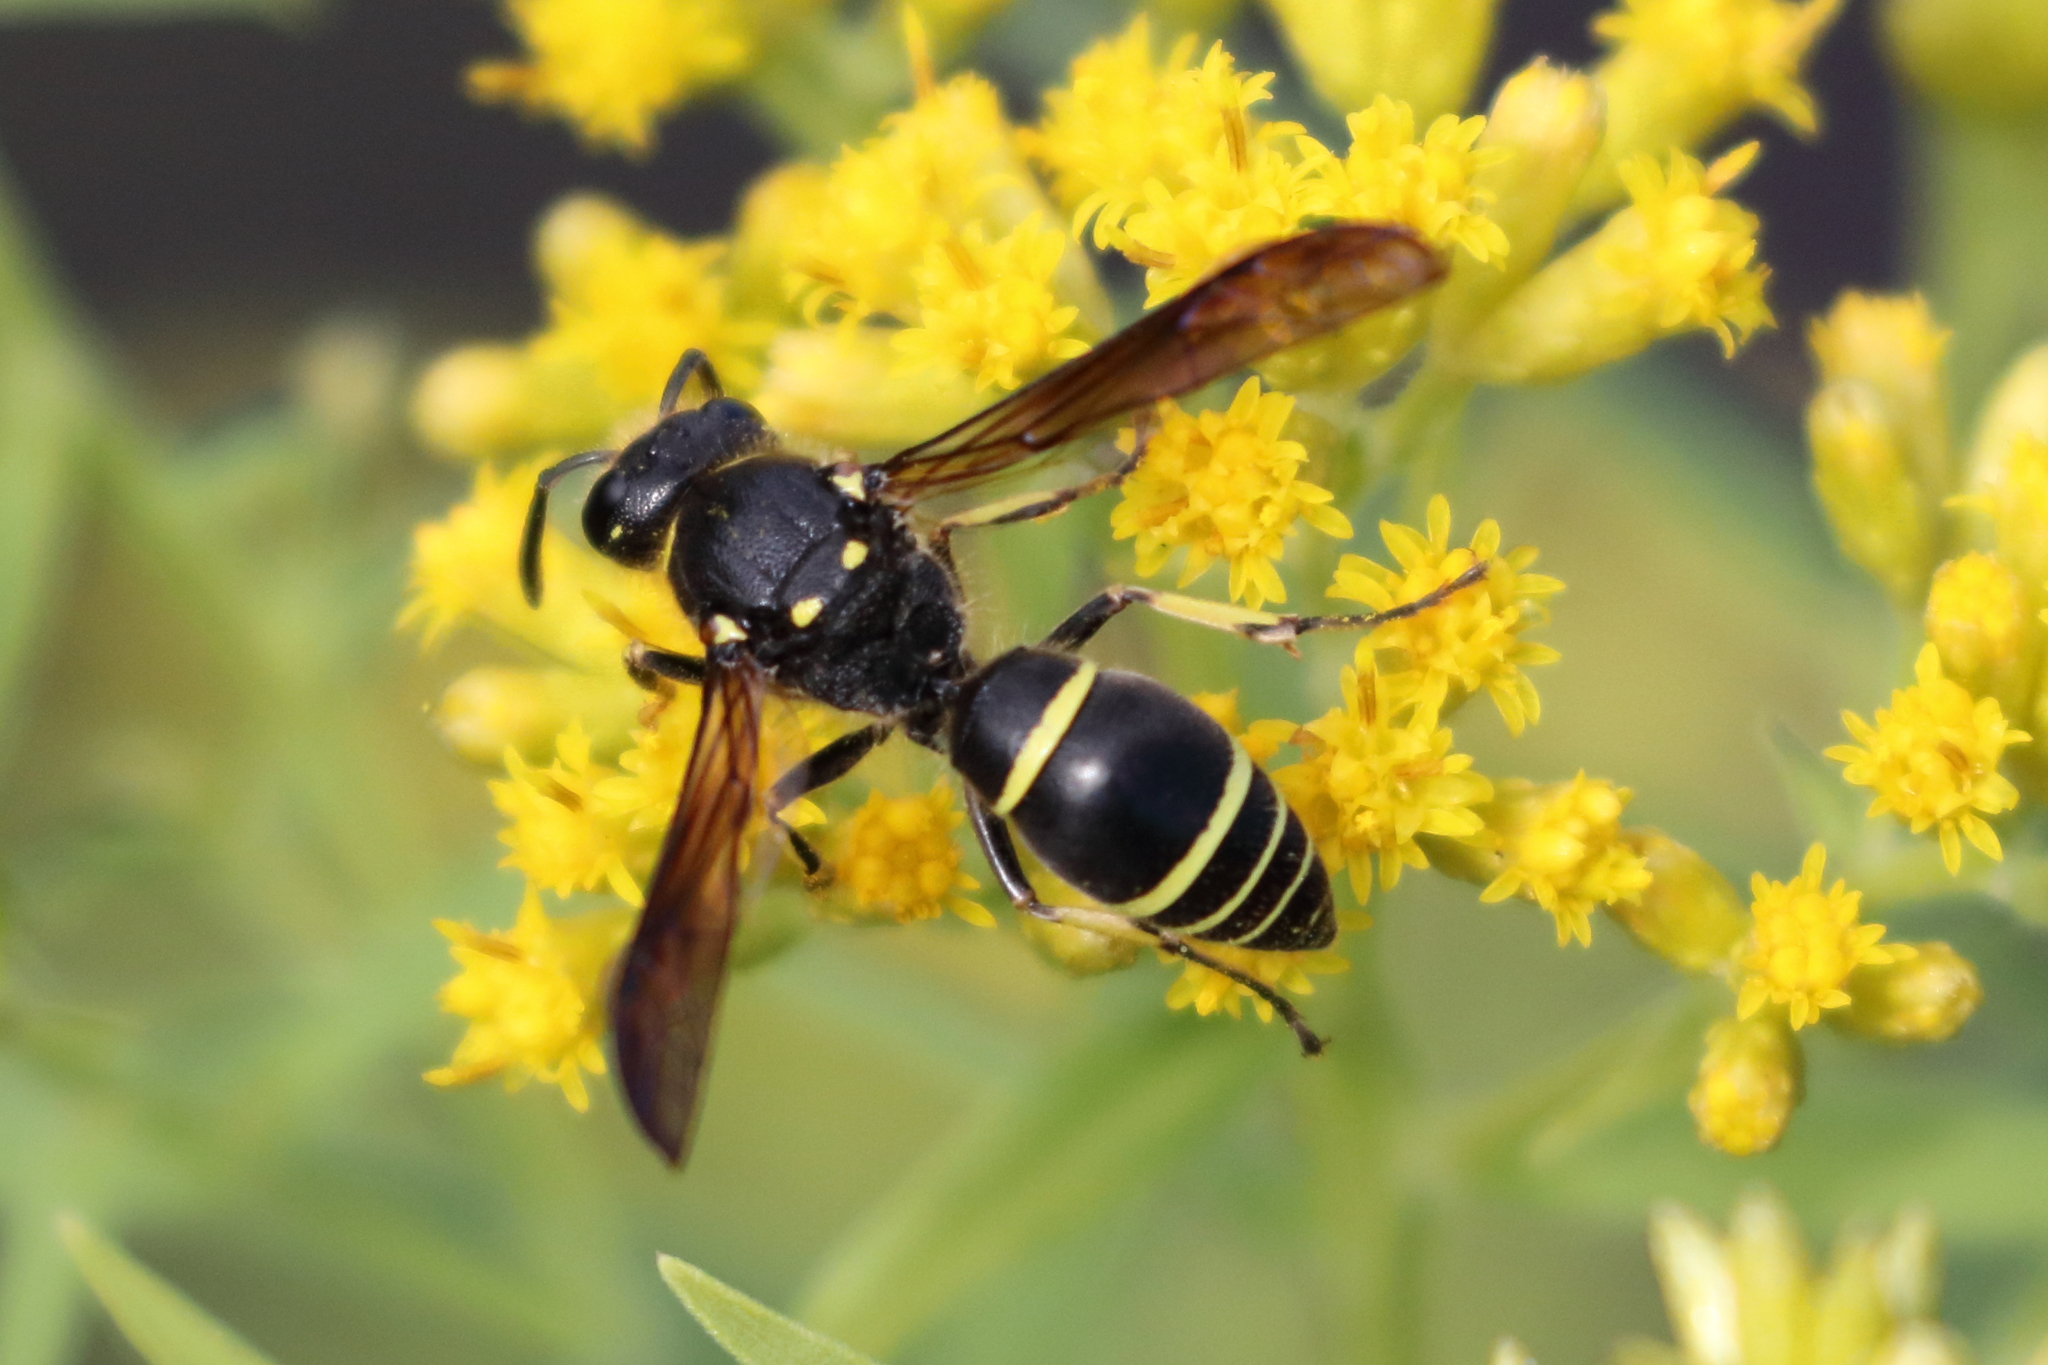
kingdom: Animalia
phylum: Arthropoda
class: Insecta
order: Hymenoptera
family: Vespidae
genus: Ancistrocerus
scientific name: Ancistrocerus
